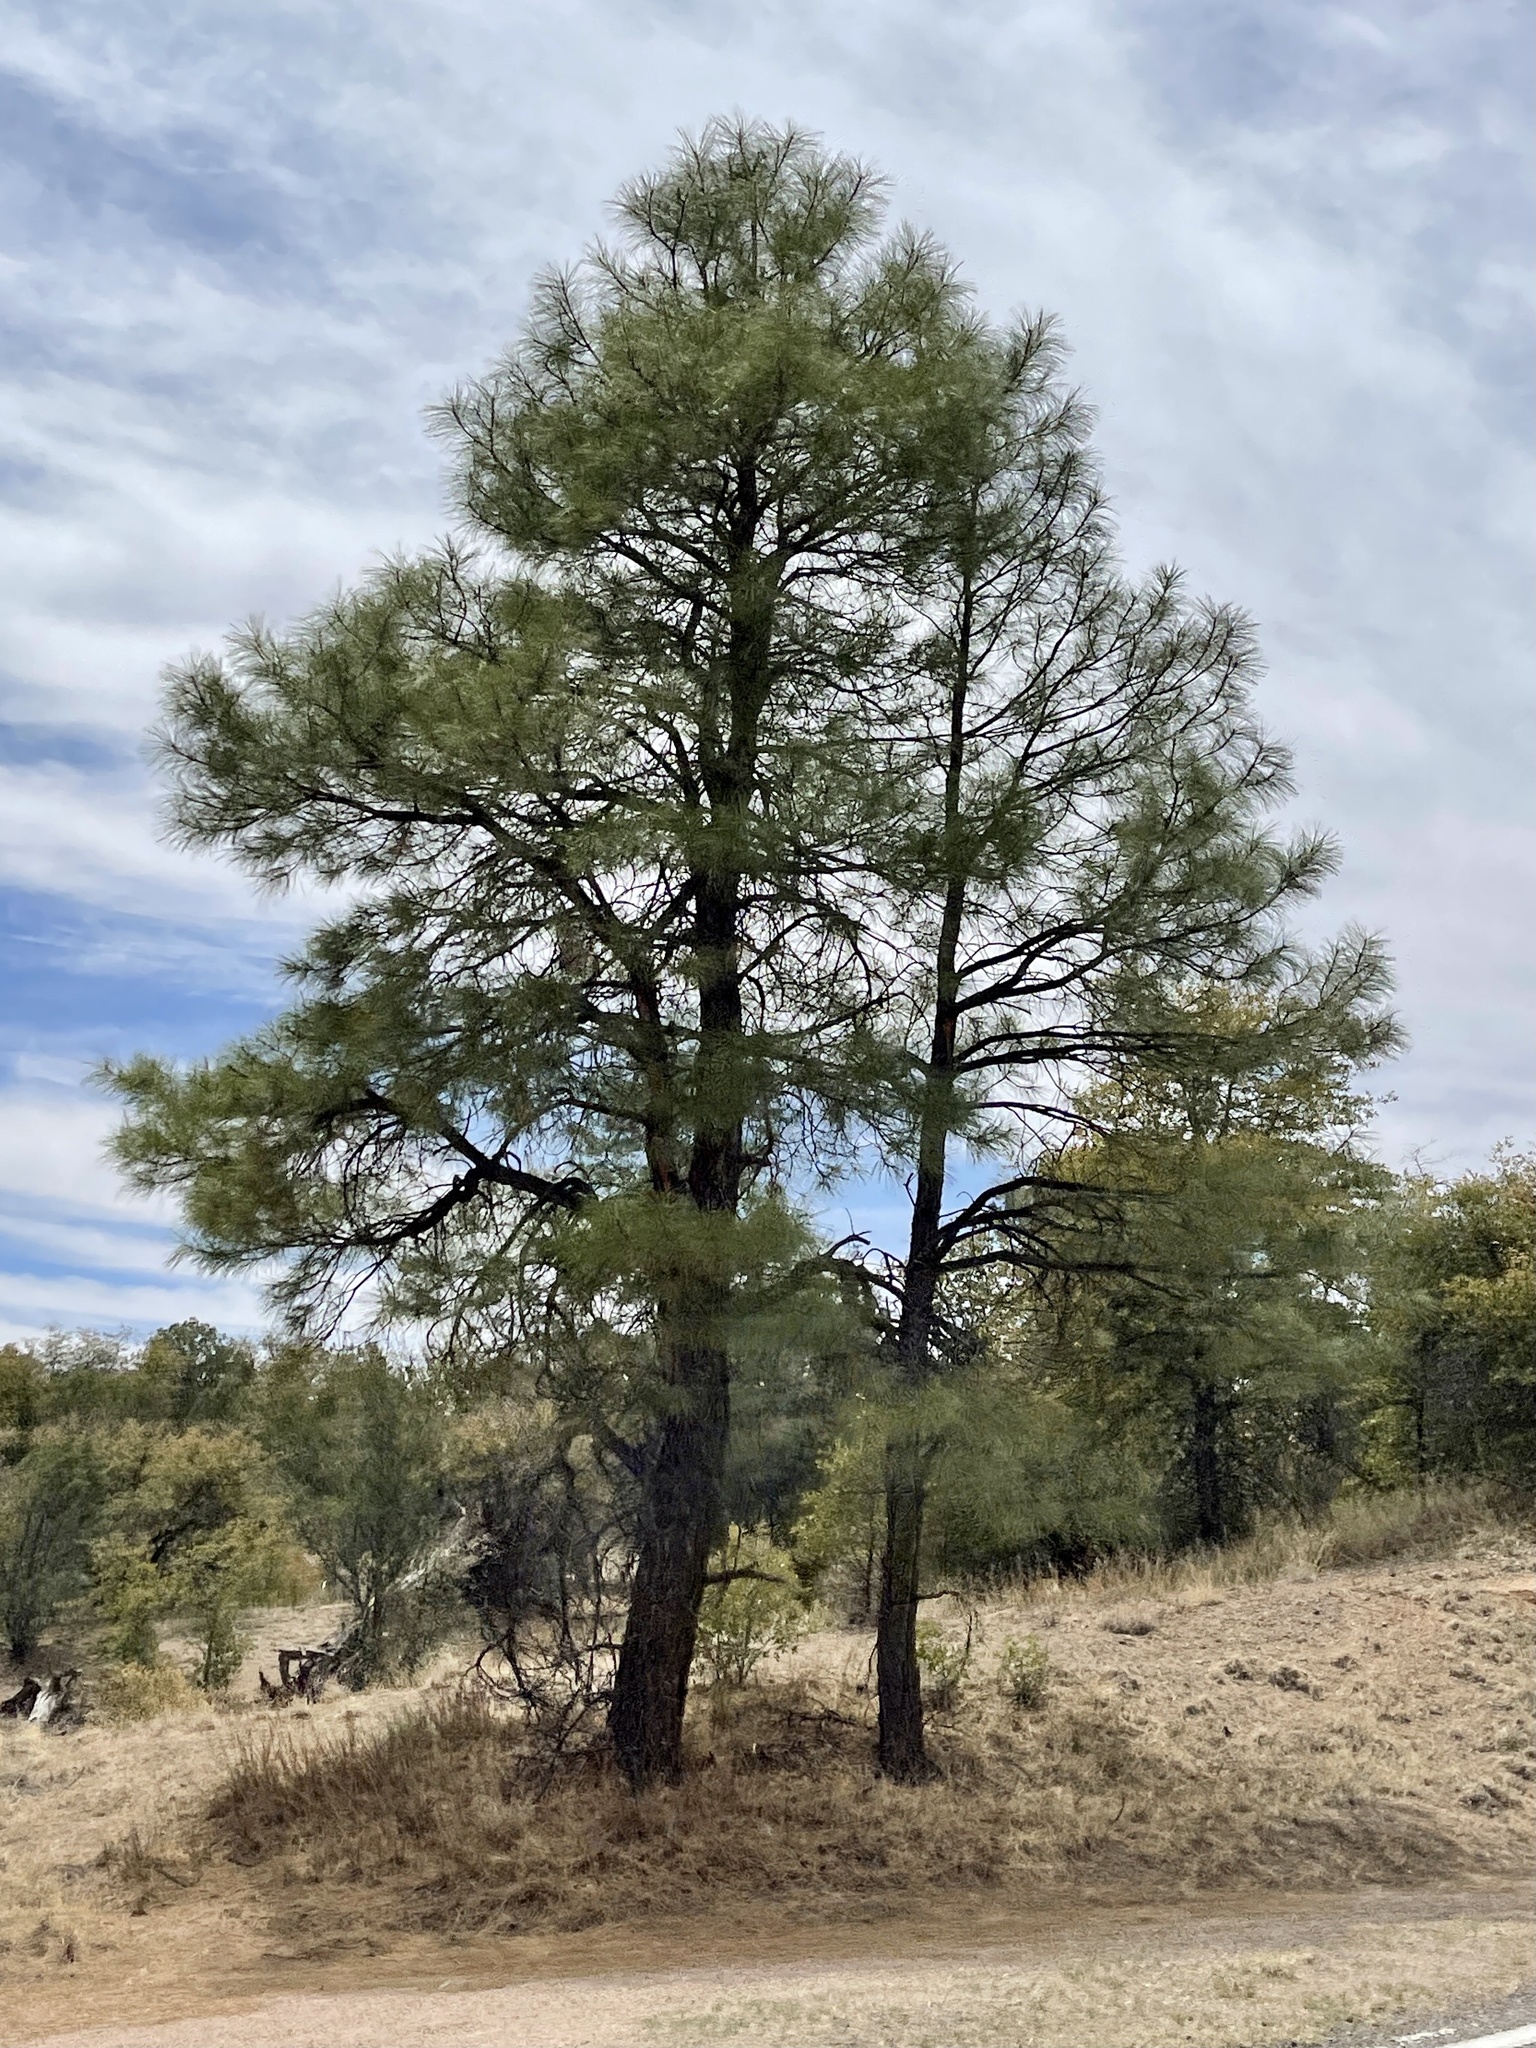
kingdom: Plantae
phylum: Tracheophyta
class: Pinopsida
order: Pinales
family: Pinaceae
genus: Pinus
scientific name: Pinus ponderosa
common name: Western yellow-pine
